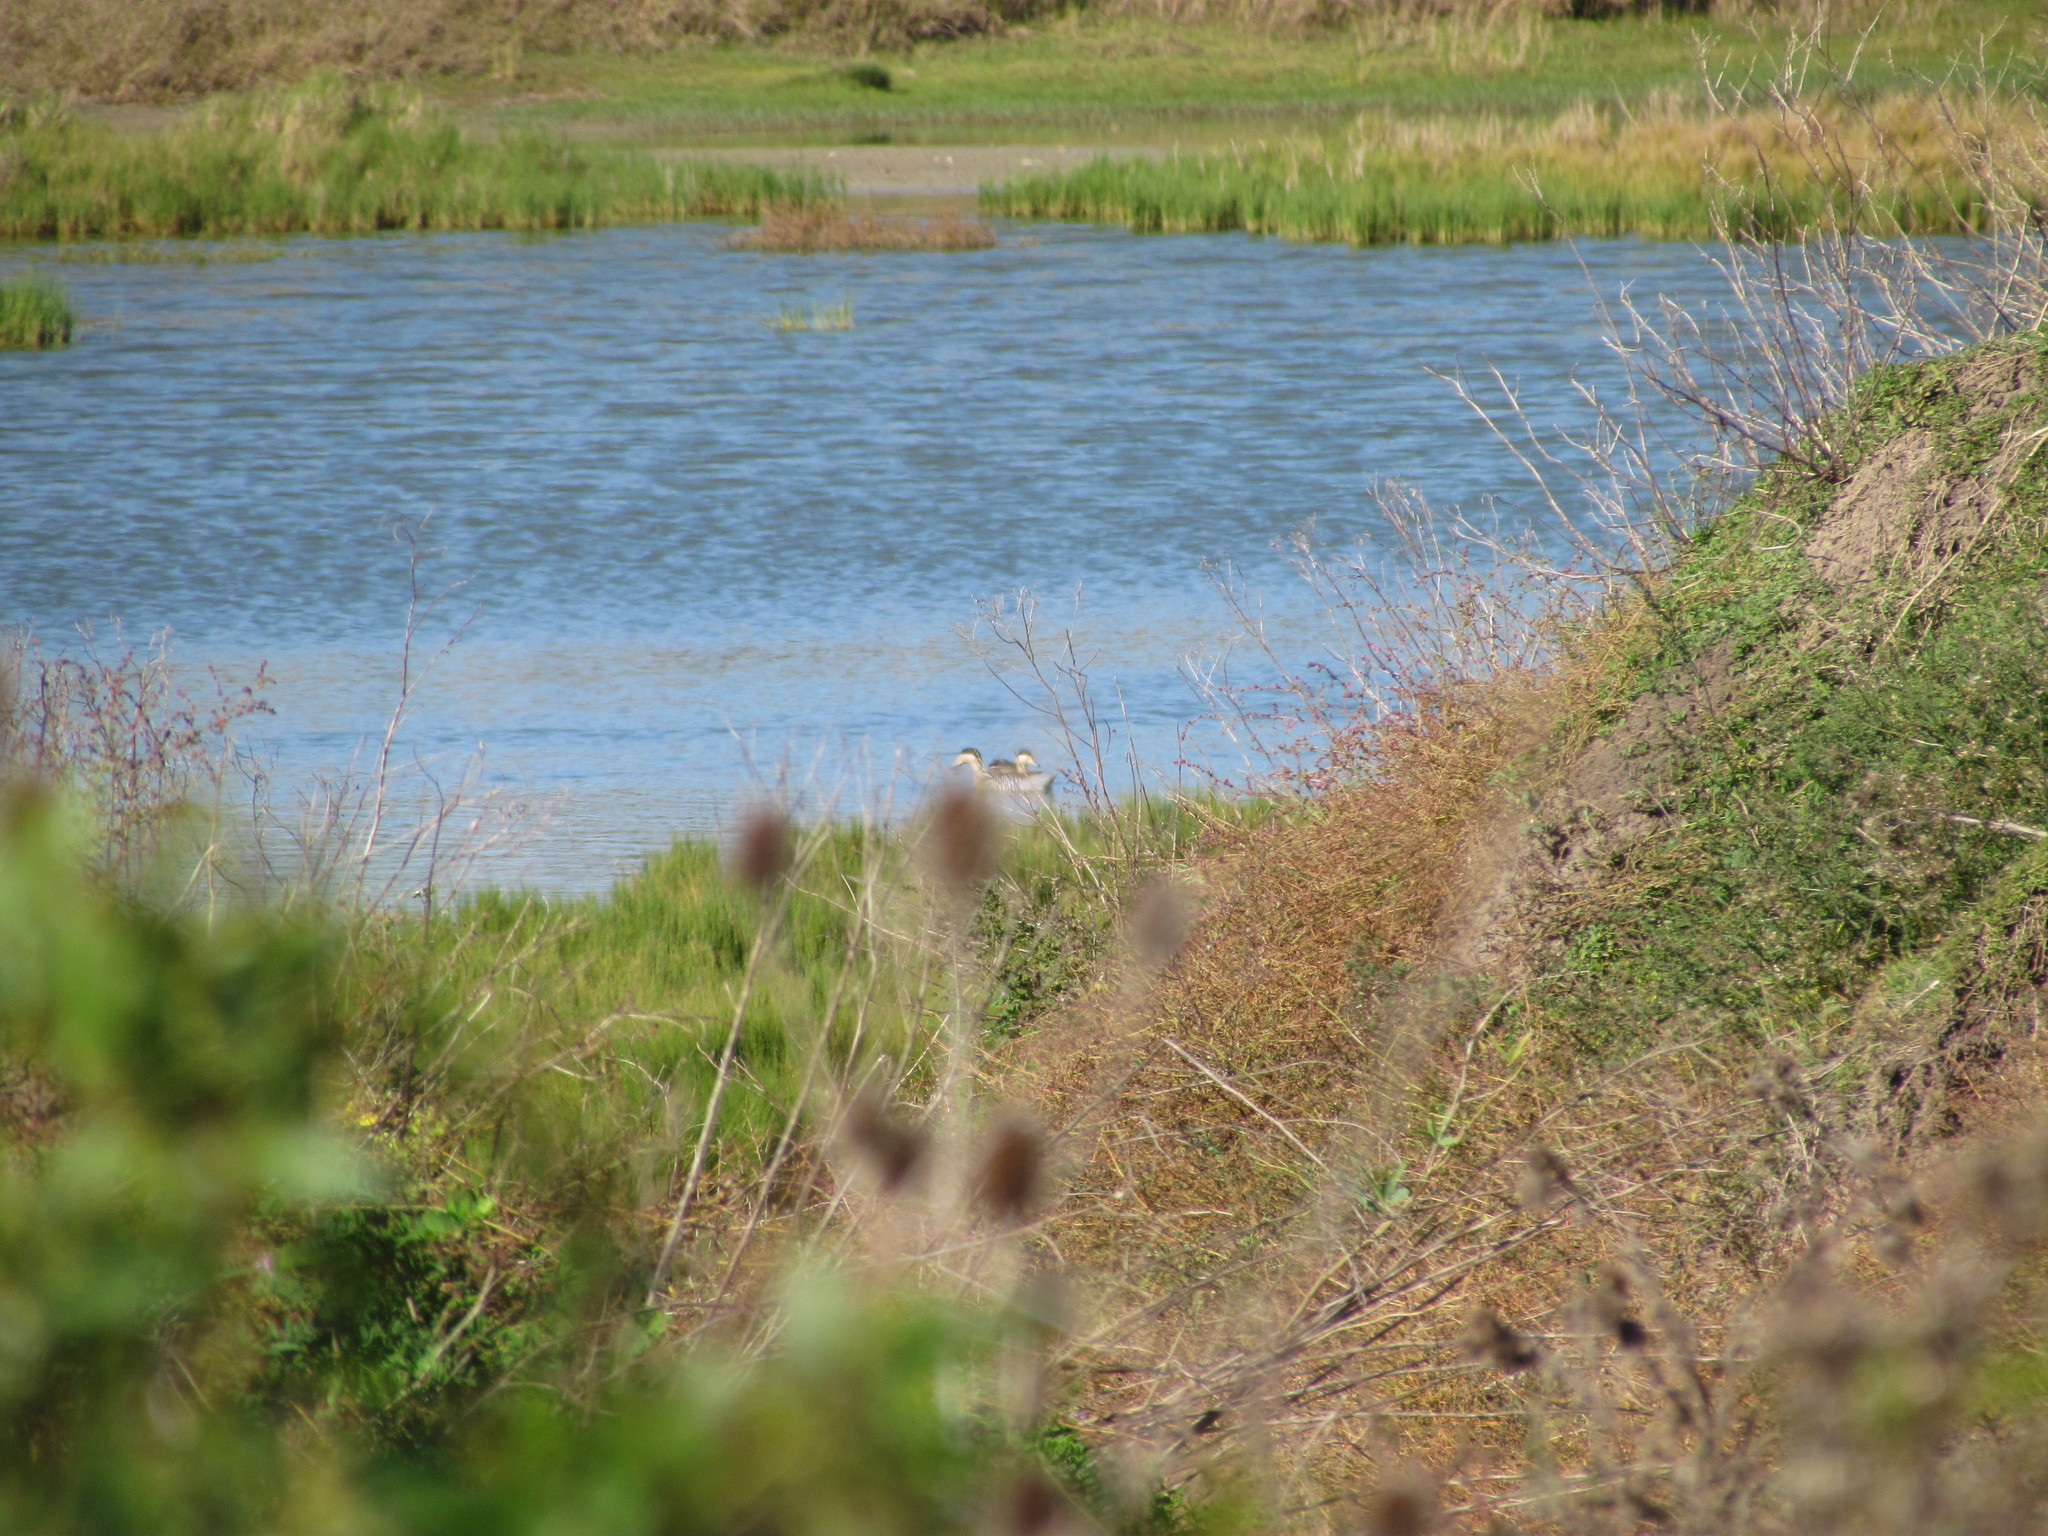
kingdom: Animalia
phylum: Chordata
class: Aves
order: Anseriformes
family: Anatidae
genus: Spatula
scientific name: Spatula versicolor
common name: Silver teal
